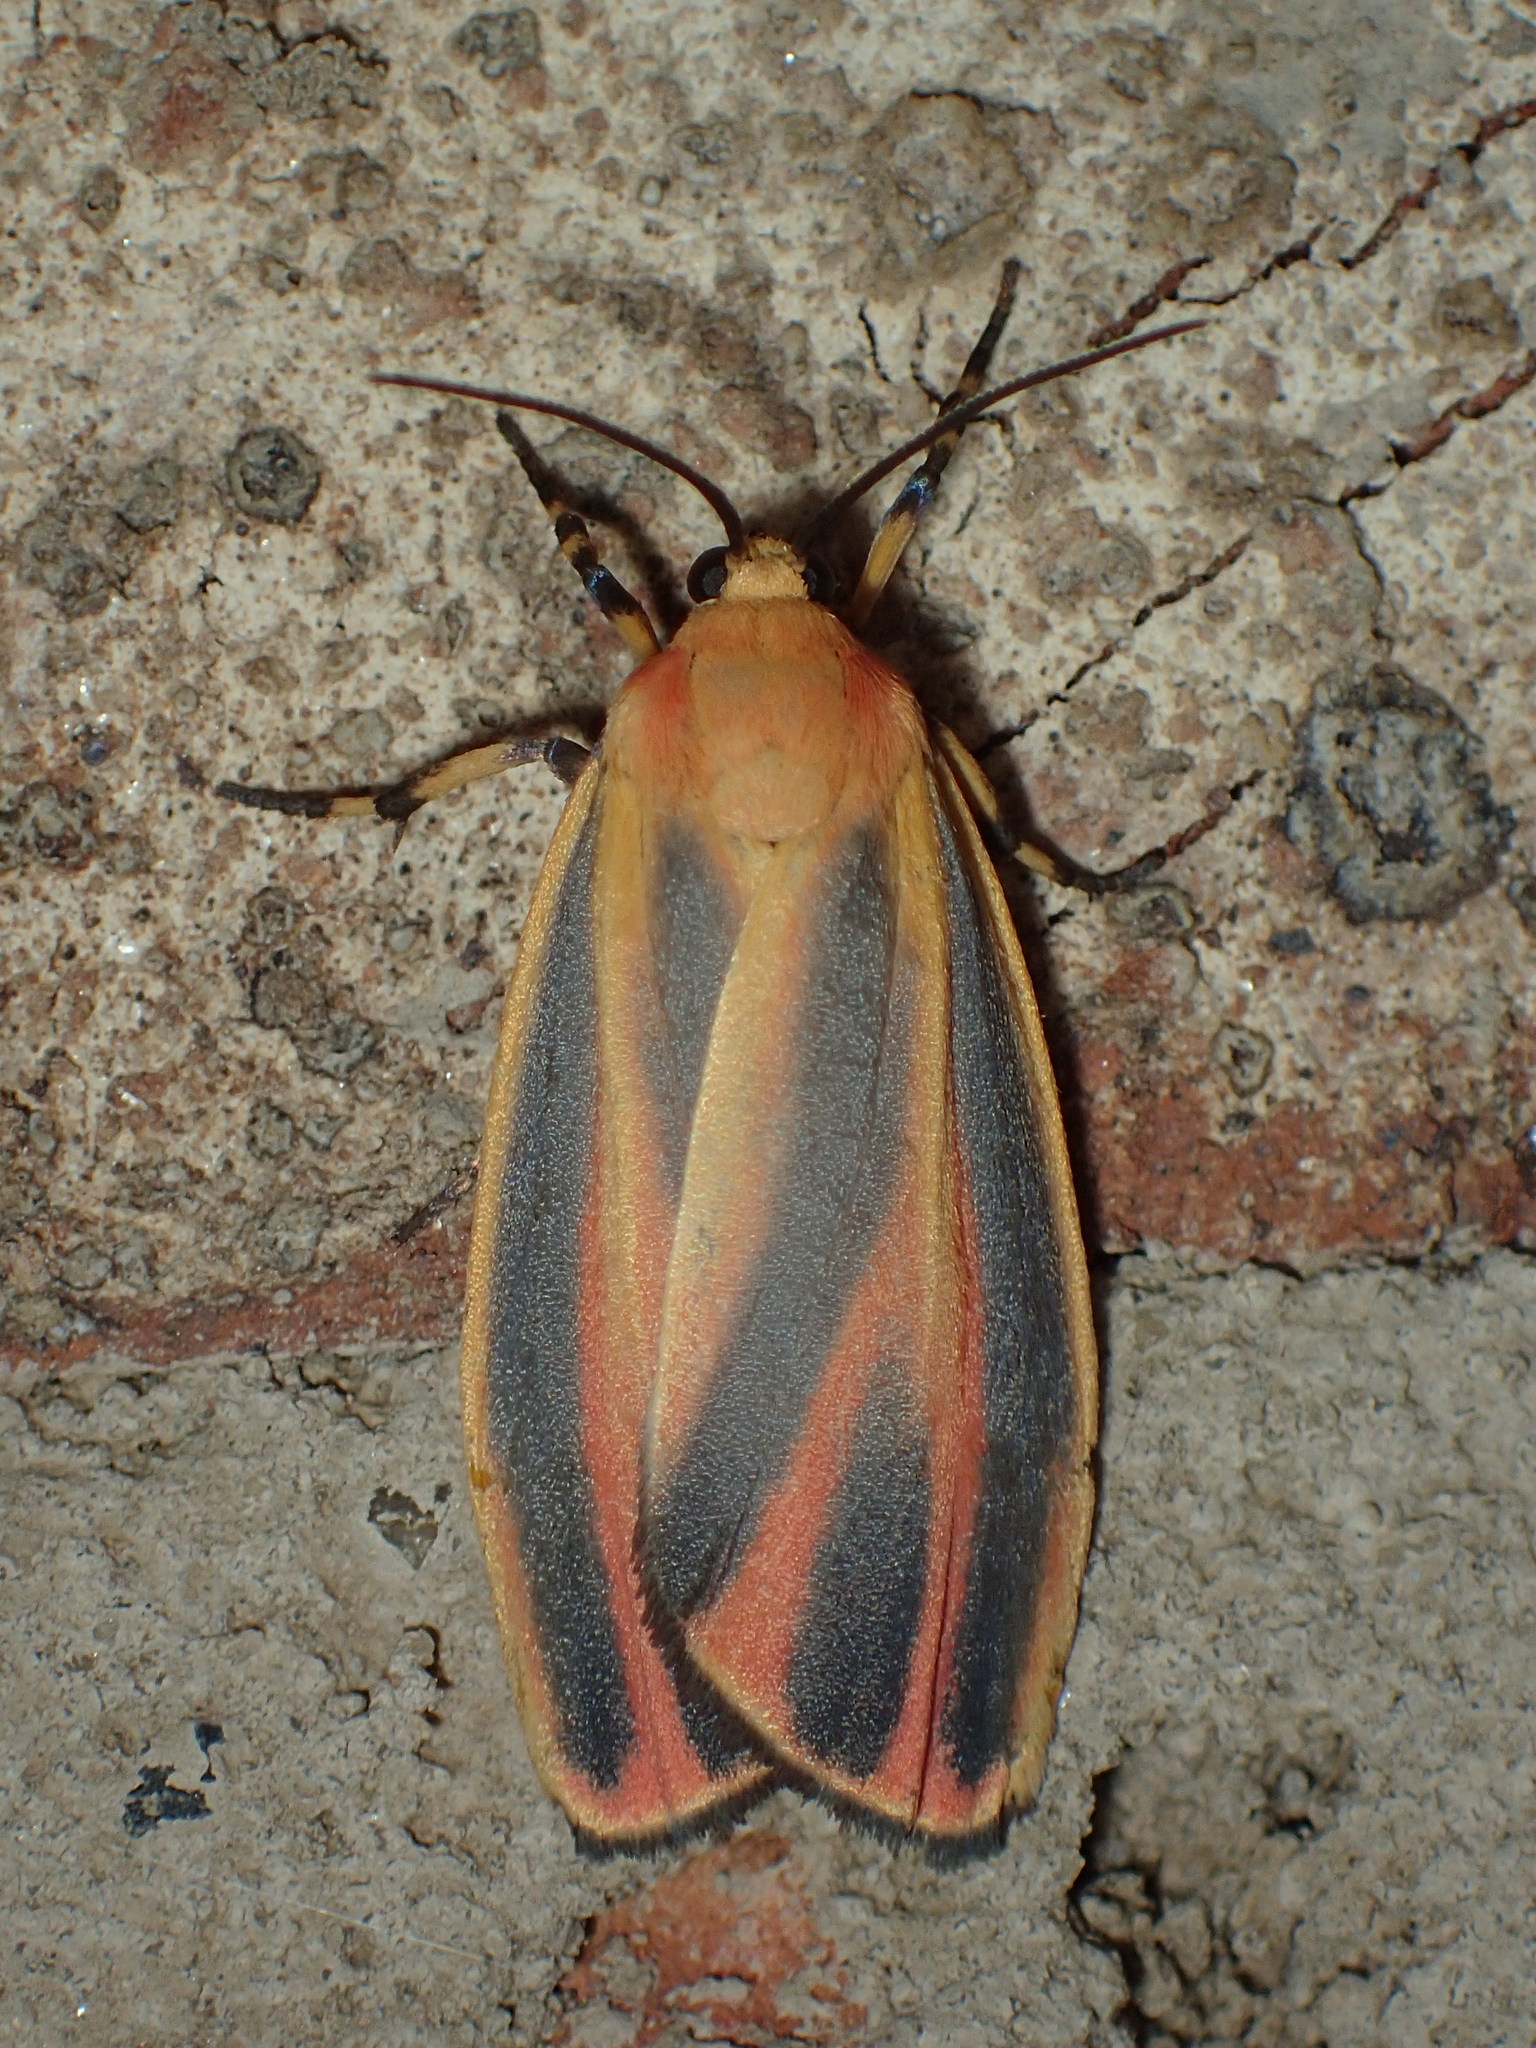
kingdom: Animalia
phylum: Arthropoda
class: Insecta
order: Lepidoptera
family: Erebidae
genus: Hypoprepia
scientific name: Hypoprepia fucosa
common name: Painted lichen moth
